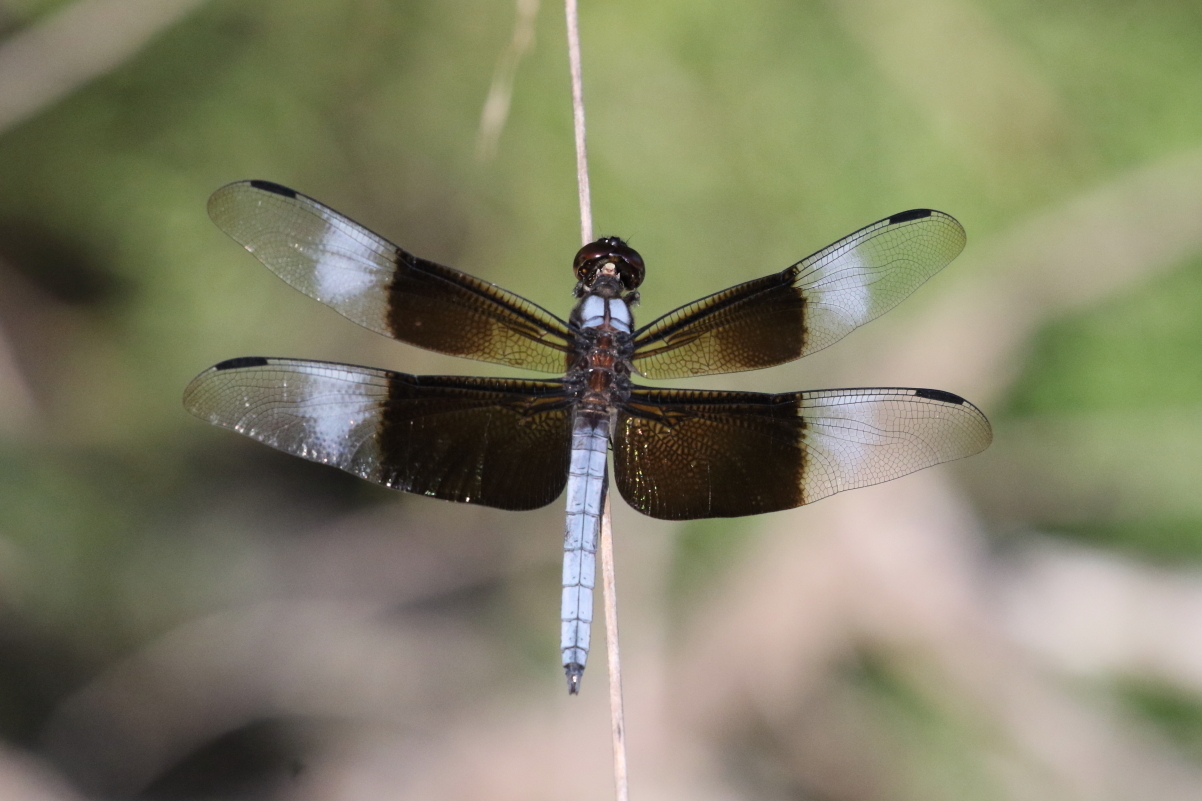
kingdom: Animalia
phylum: Arthropoda
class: Insecta
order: Odonata
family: Libellulidae
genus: Libellula
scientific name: Libellula luctuosa
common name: Widow skimmer
